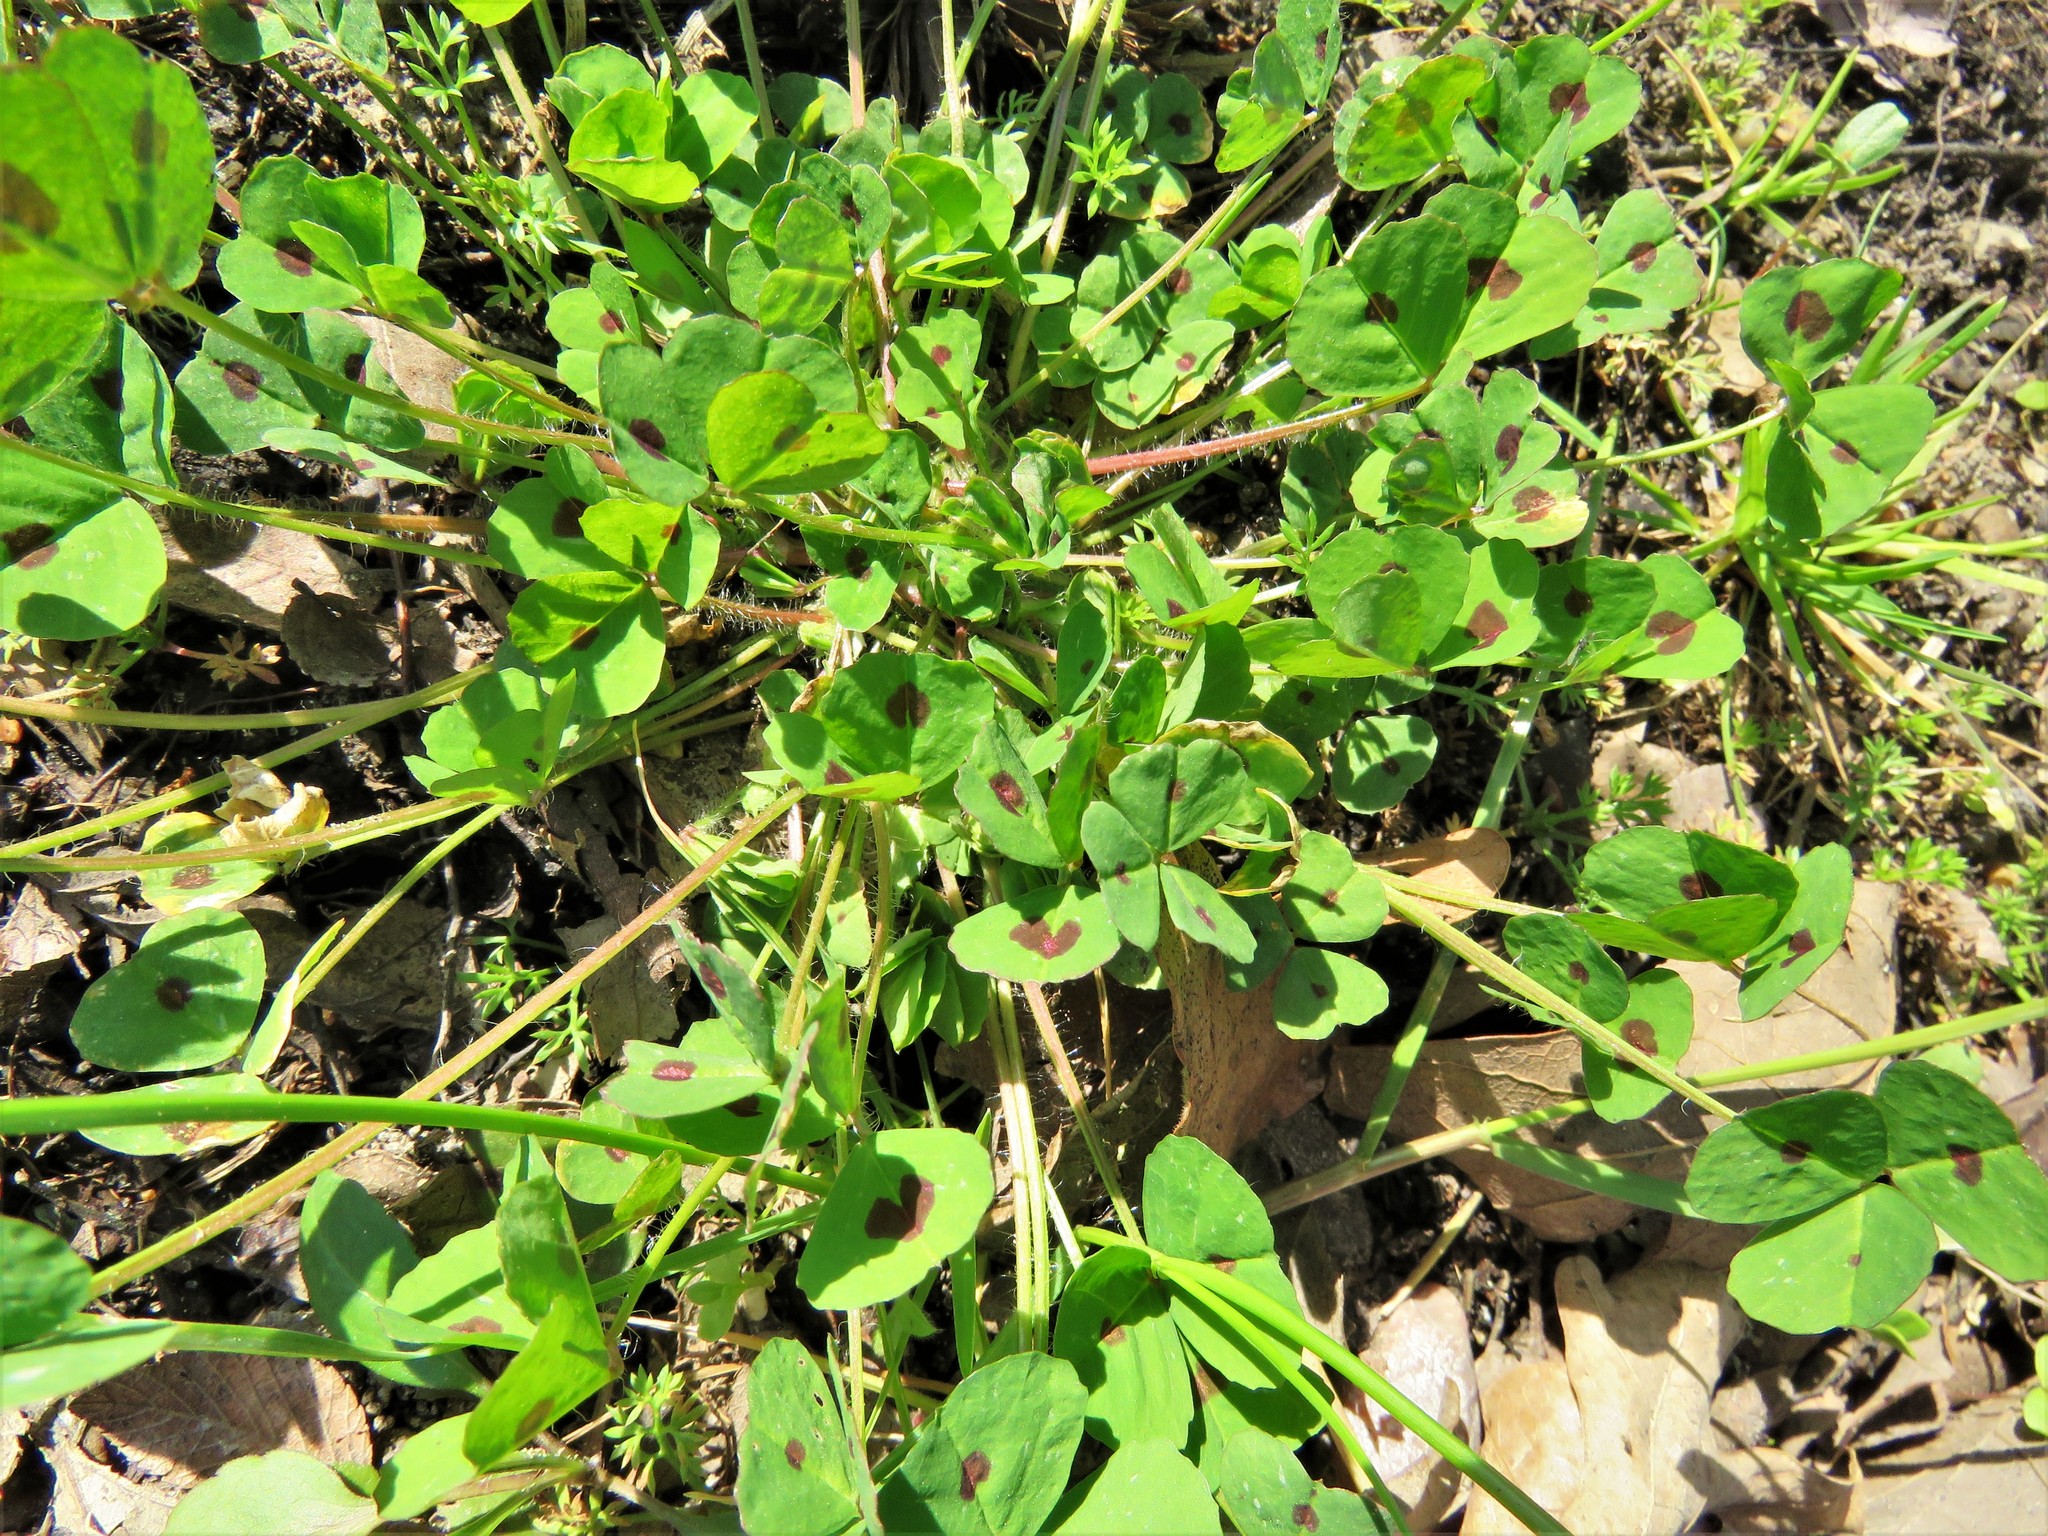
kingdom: Plantae
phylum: Tracheophyta
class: Magnoliopsida
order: Fabales
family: Fabaceae
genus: Medicago
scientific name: Medicago arabica
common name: Spotted medick
